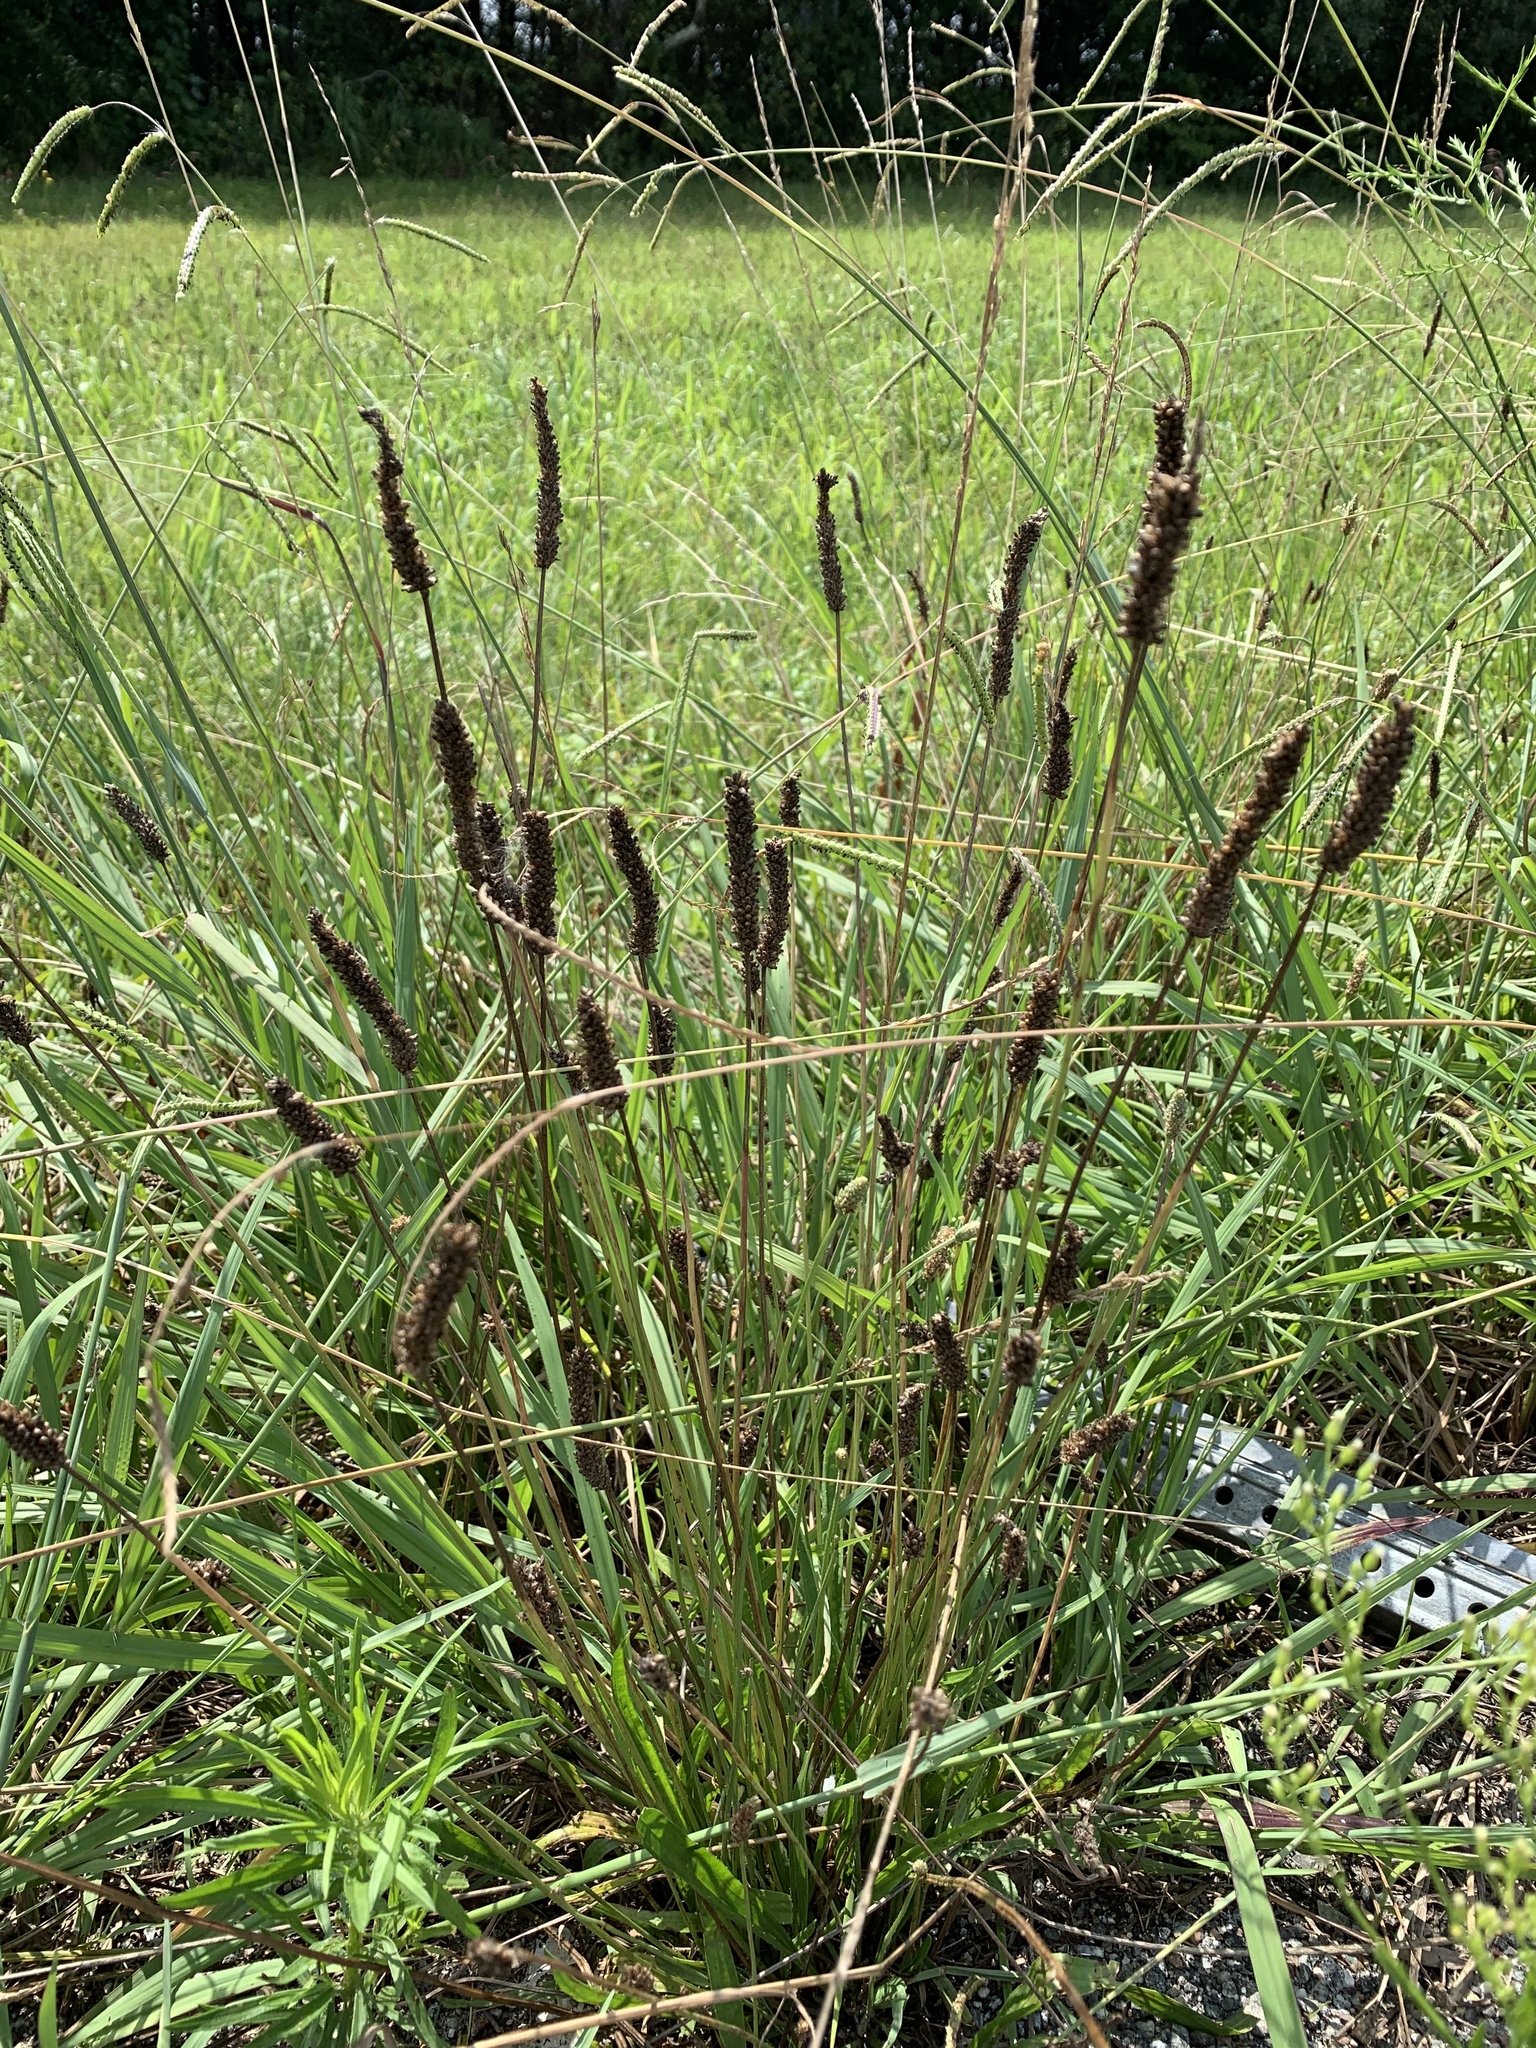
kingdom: Plantae
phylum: Tracheophyta
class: Magnoliopsida
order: Lamiales
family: Plantaginaceae
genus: Plantago
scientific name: Plantago lanceolata
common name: Ribwort plantain
